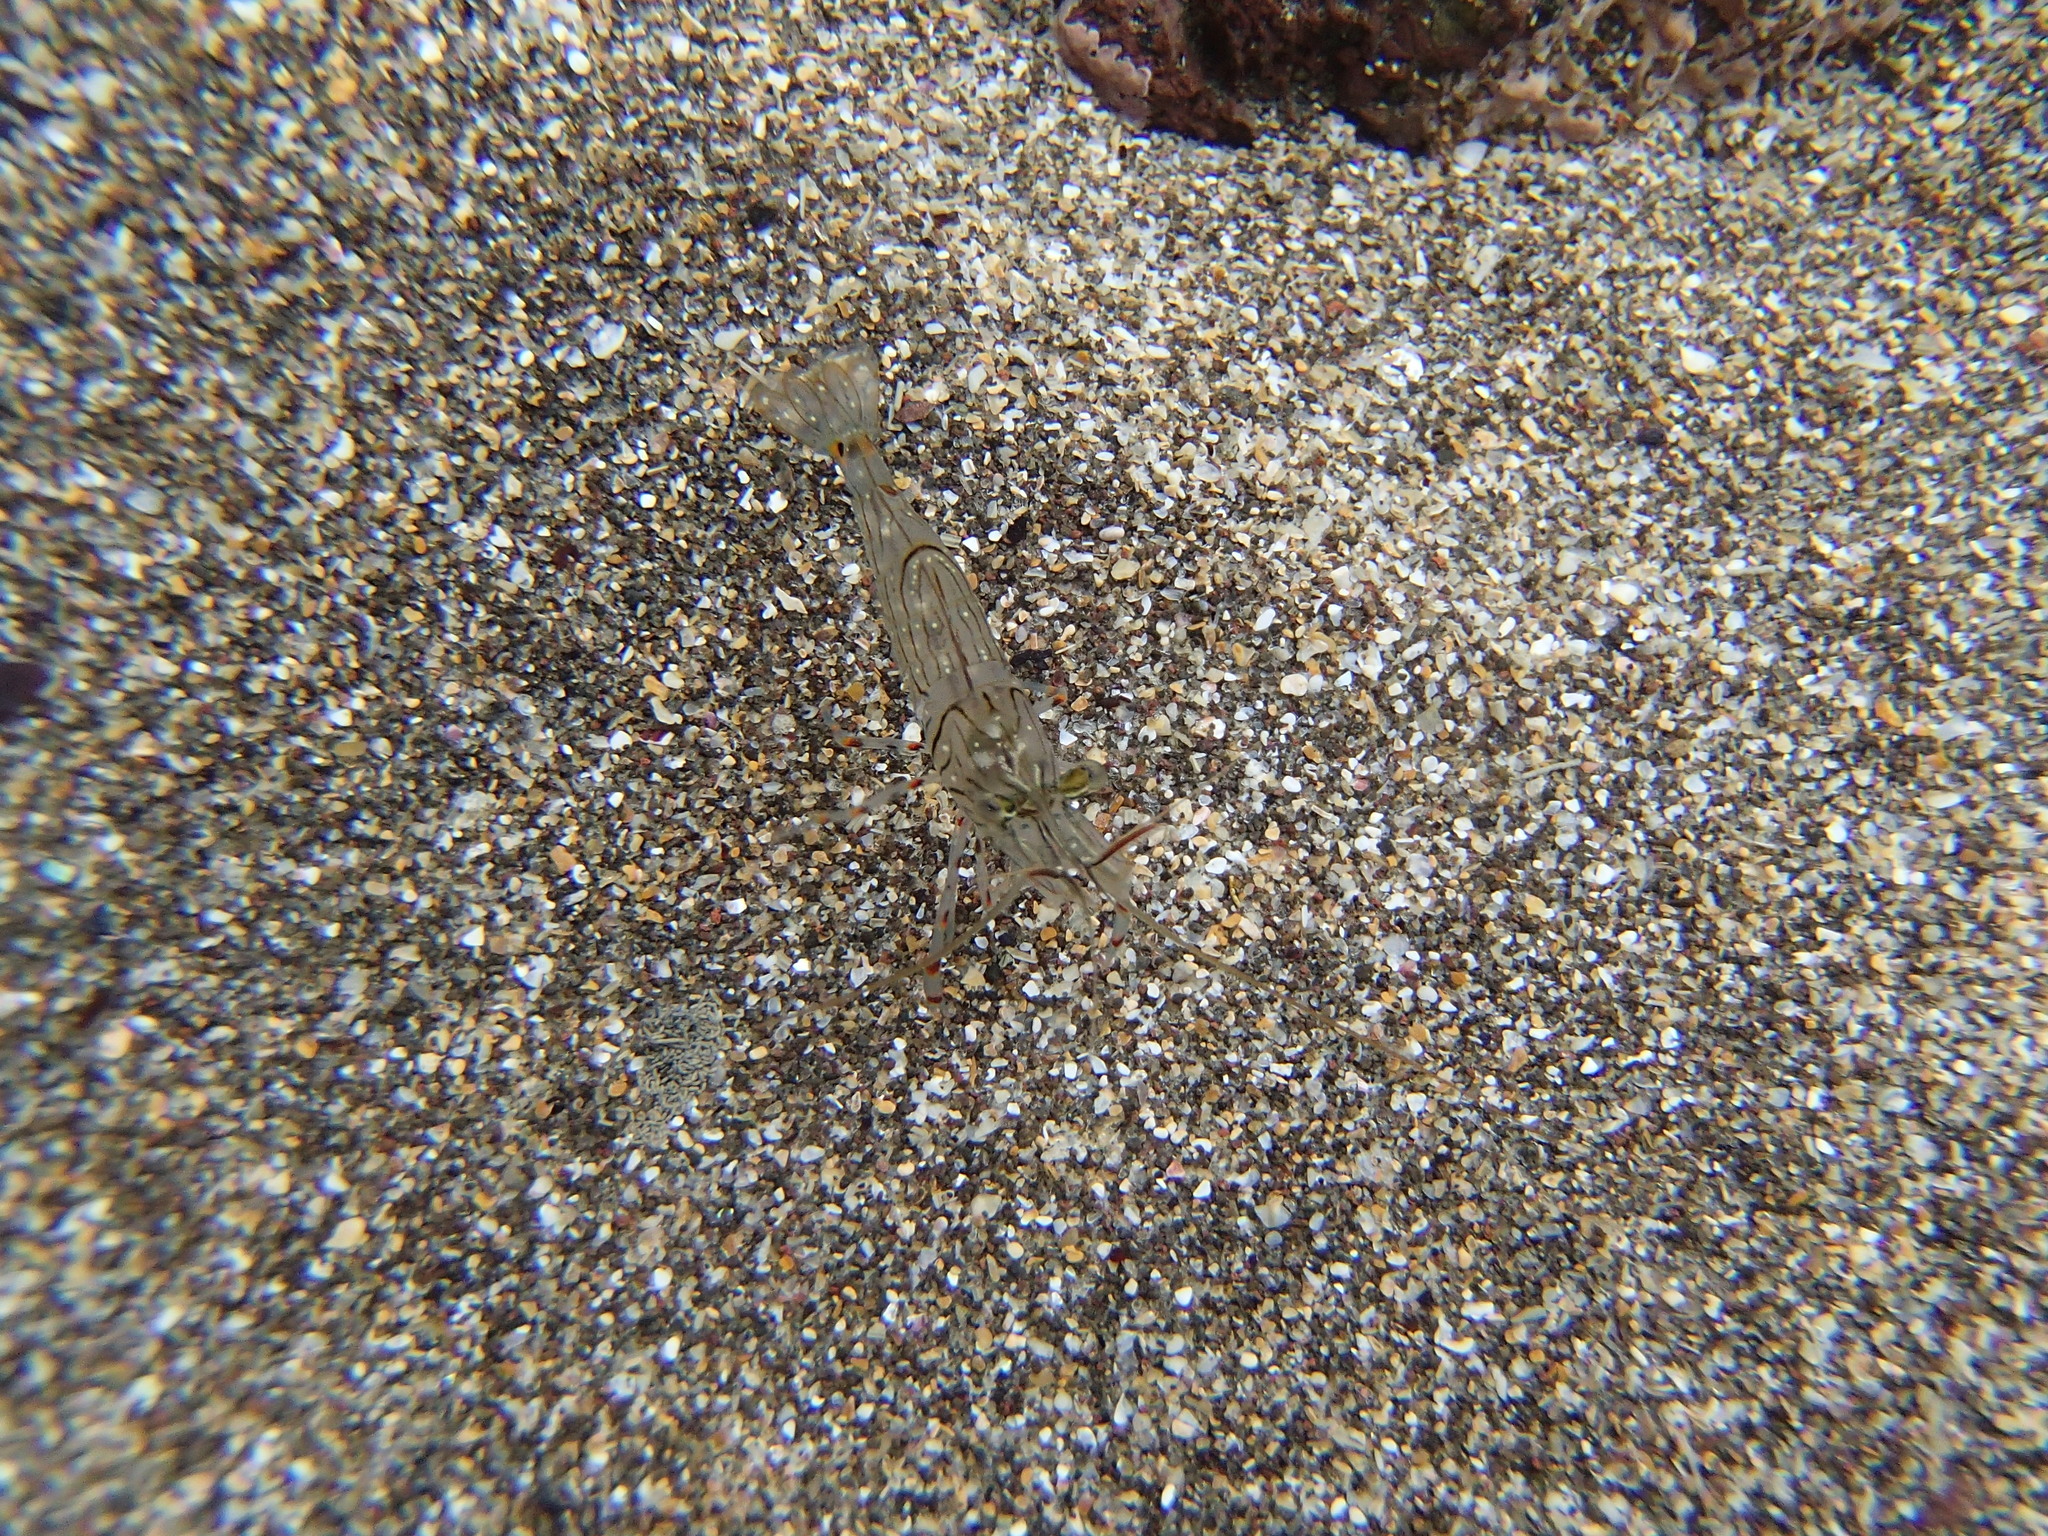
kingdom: Animalia
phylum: Arthropoda
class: Malacostraca
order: Decapoda
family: Palaemonidae
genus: Palaemon
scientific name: Palaemon affinis
